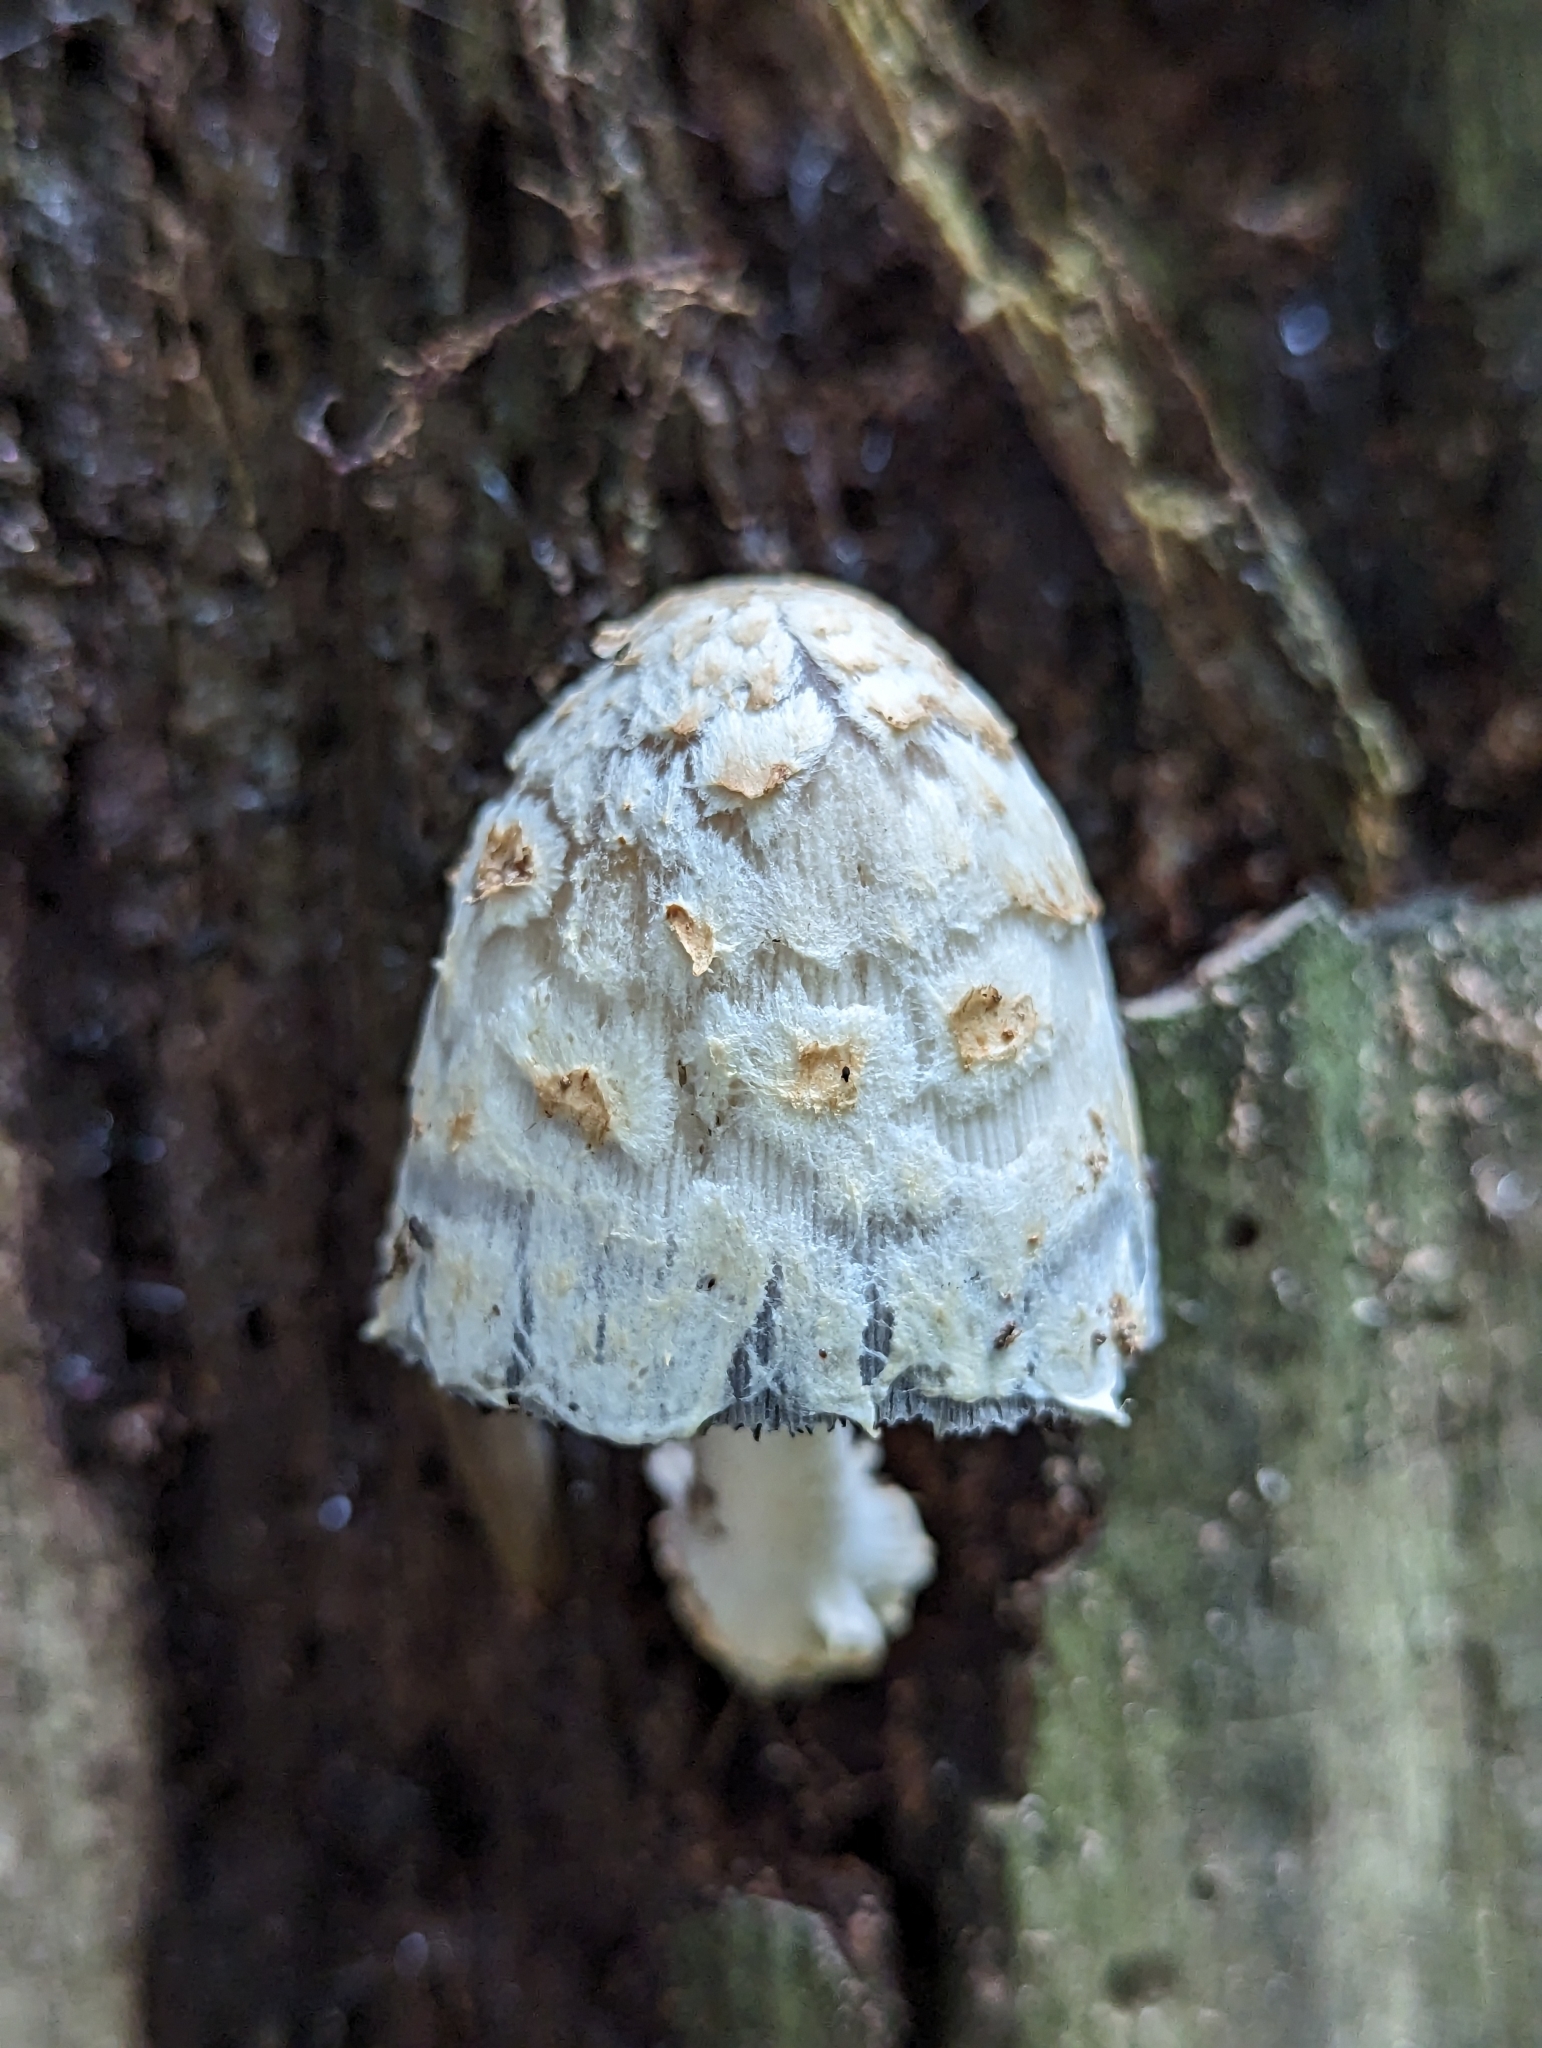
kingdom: Fungi
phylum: Basidiomycota
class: Agaricomycetes
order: Agaricales
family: Psathyrellaceae
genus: Coprinopsis
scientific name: Coprinopsis variegata
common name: Scaly ink cap
